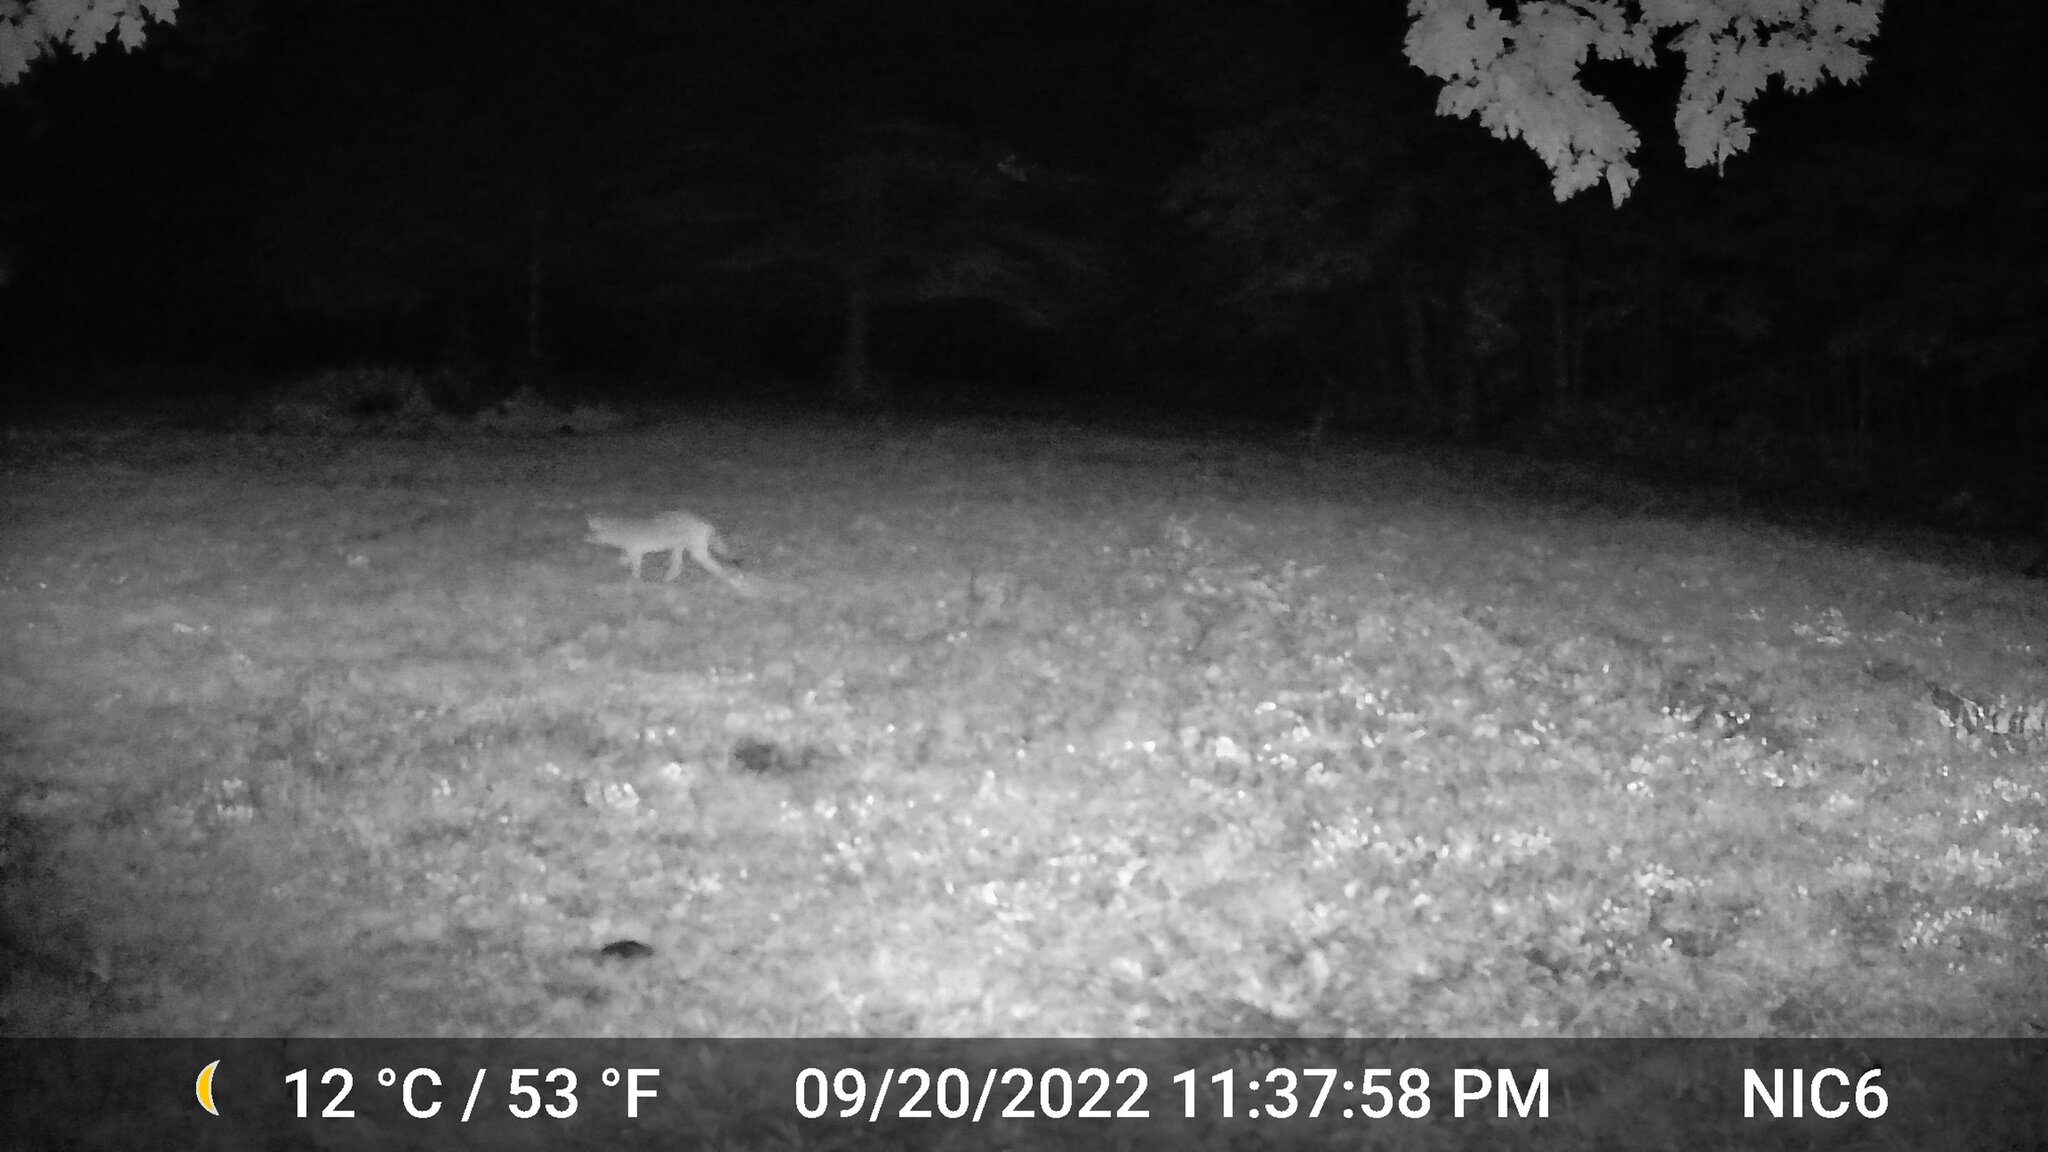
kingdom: Animalia
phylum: Chordata
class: Mammalia
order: Carnivora
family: Canidae
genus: Canis
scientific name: Canis latrans
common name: Coyote
